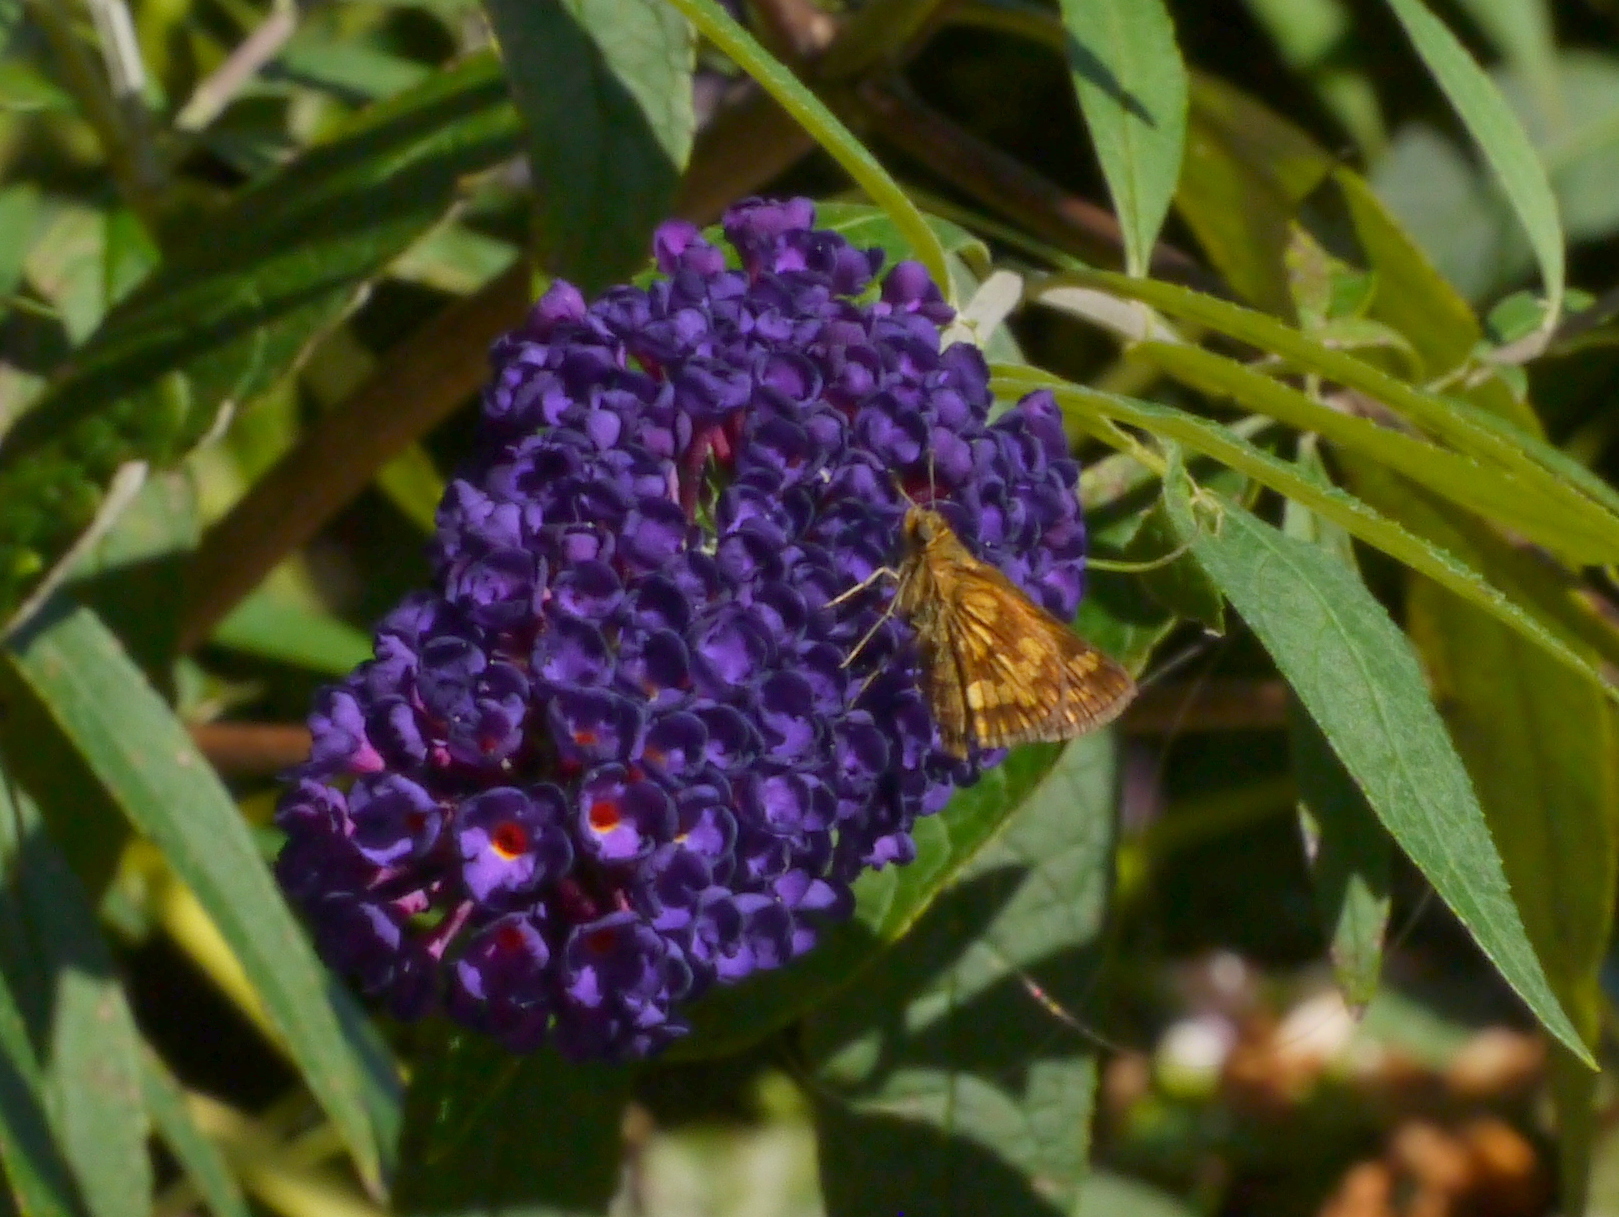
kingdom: Animalia
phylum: Arthropoda
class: Insecta
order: Lepidoptera
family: Hesperiidae
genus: Polites
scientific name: Polites coras
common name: Peck's skipper
